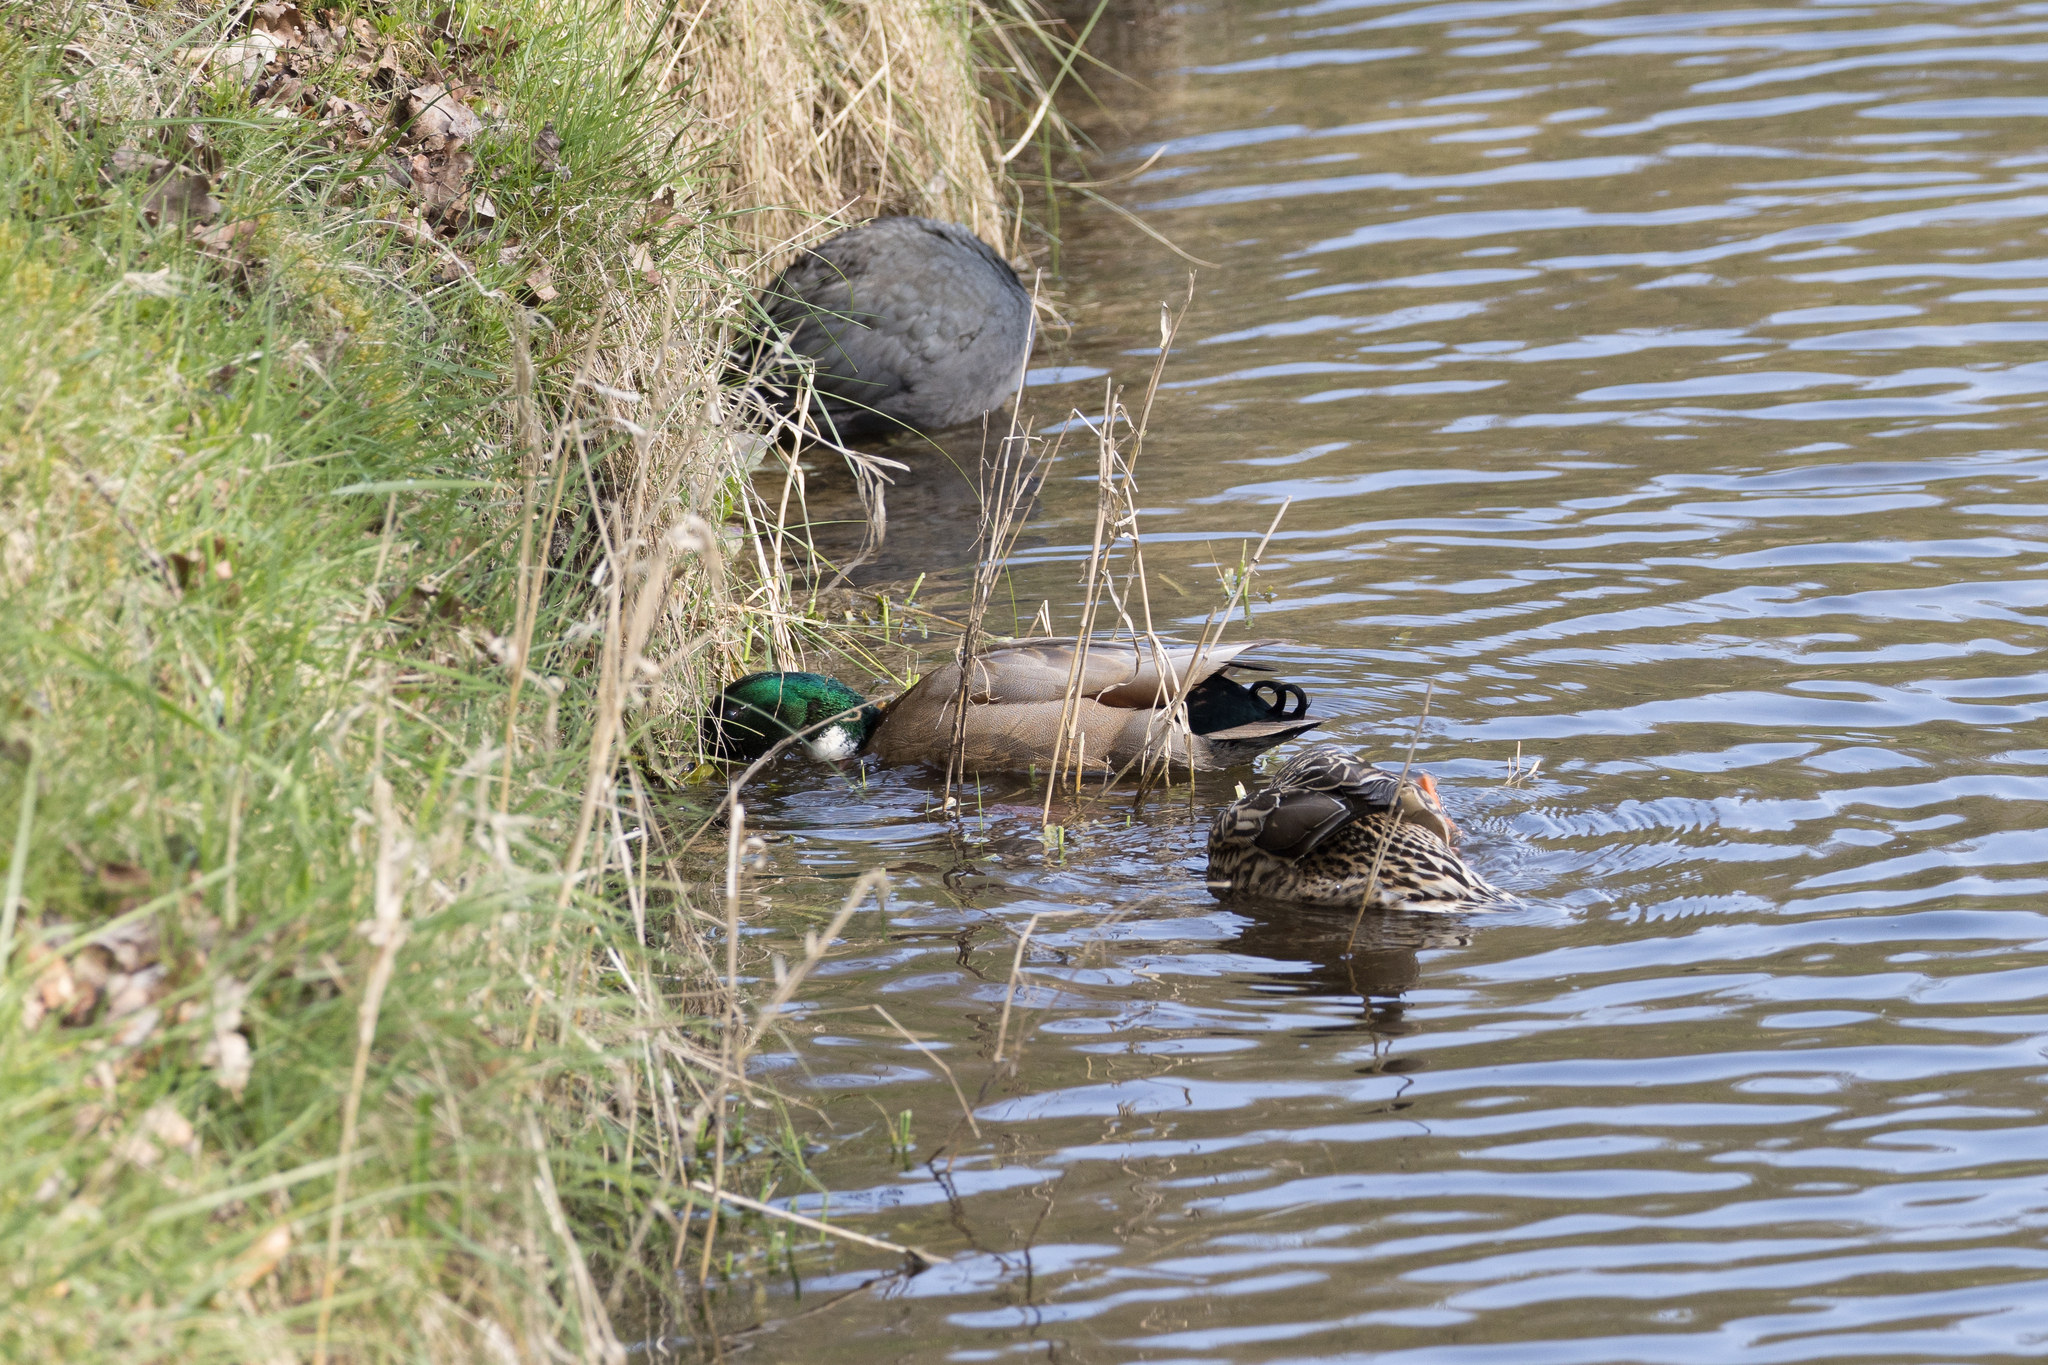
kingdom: Animalia
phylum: Chordata
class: Aves
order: Gruiformes
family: Rallidae
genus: Fulica
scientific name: Fulica atra
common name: Eurasian coot
